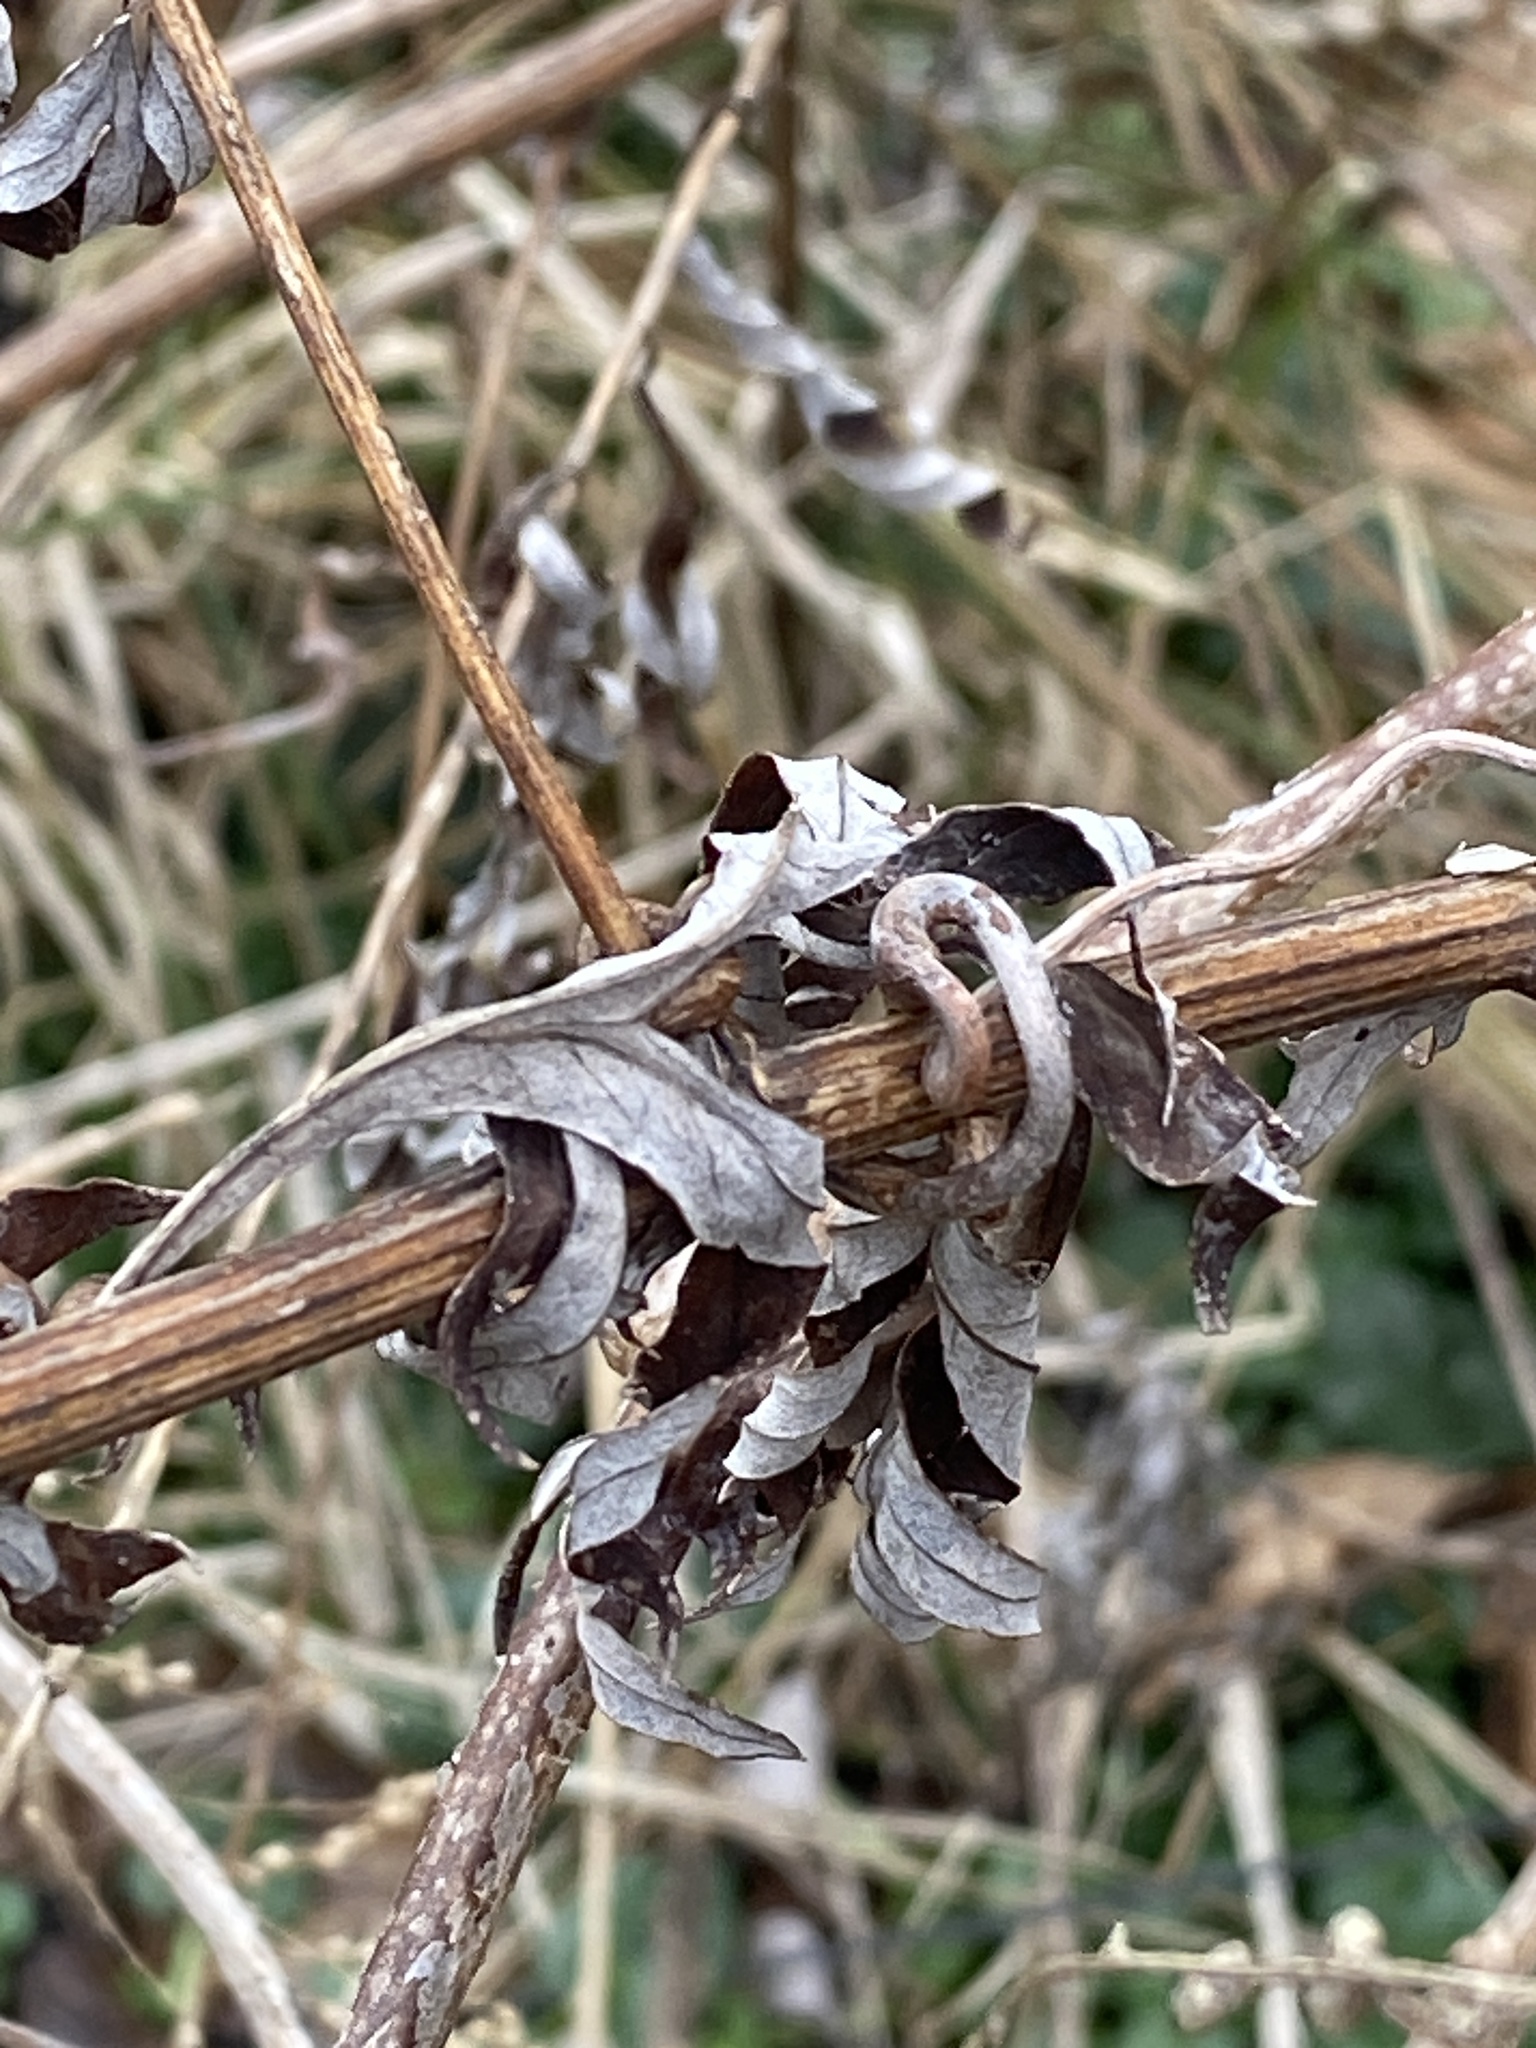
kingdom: Plantae
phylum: Tracheophyta
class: Magnoliopsida
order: Asterales
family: Asteraceae
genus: Artemisia
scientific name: Artemisia vulgaris
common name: Mugwort
